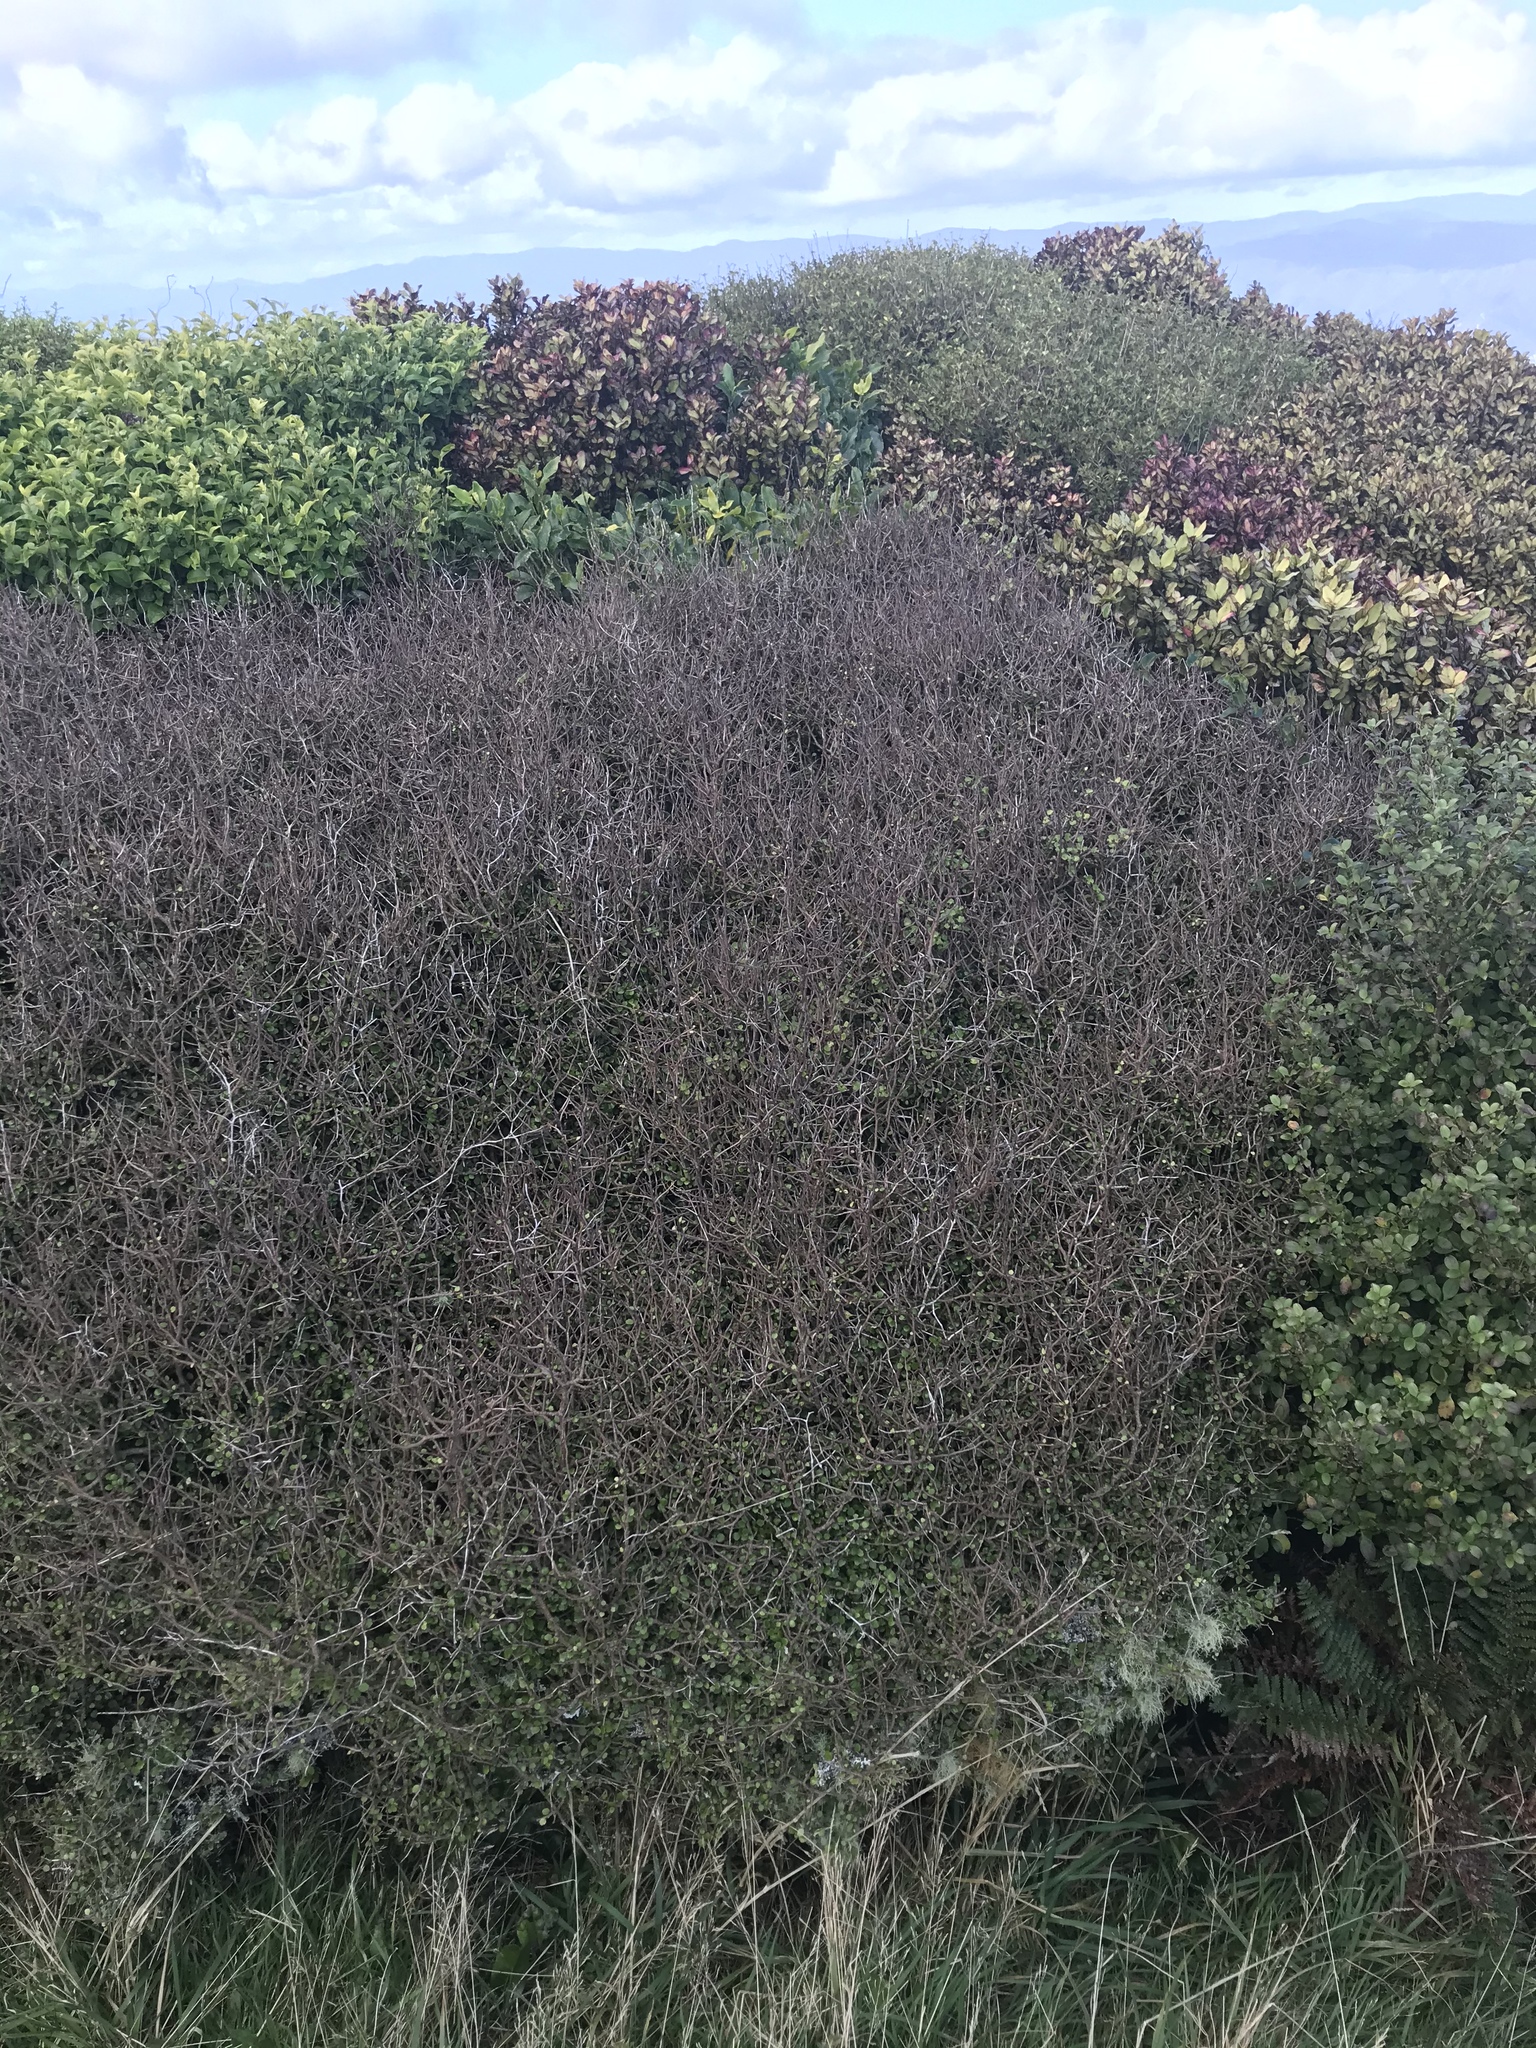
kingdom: Plantae
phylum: Tracheophyta
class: Magnoliopsida
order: Apiales
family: Araliaceae
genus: Raukaua
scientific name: Raukaua anomalus
